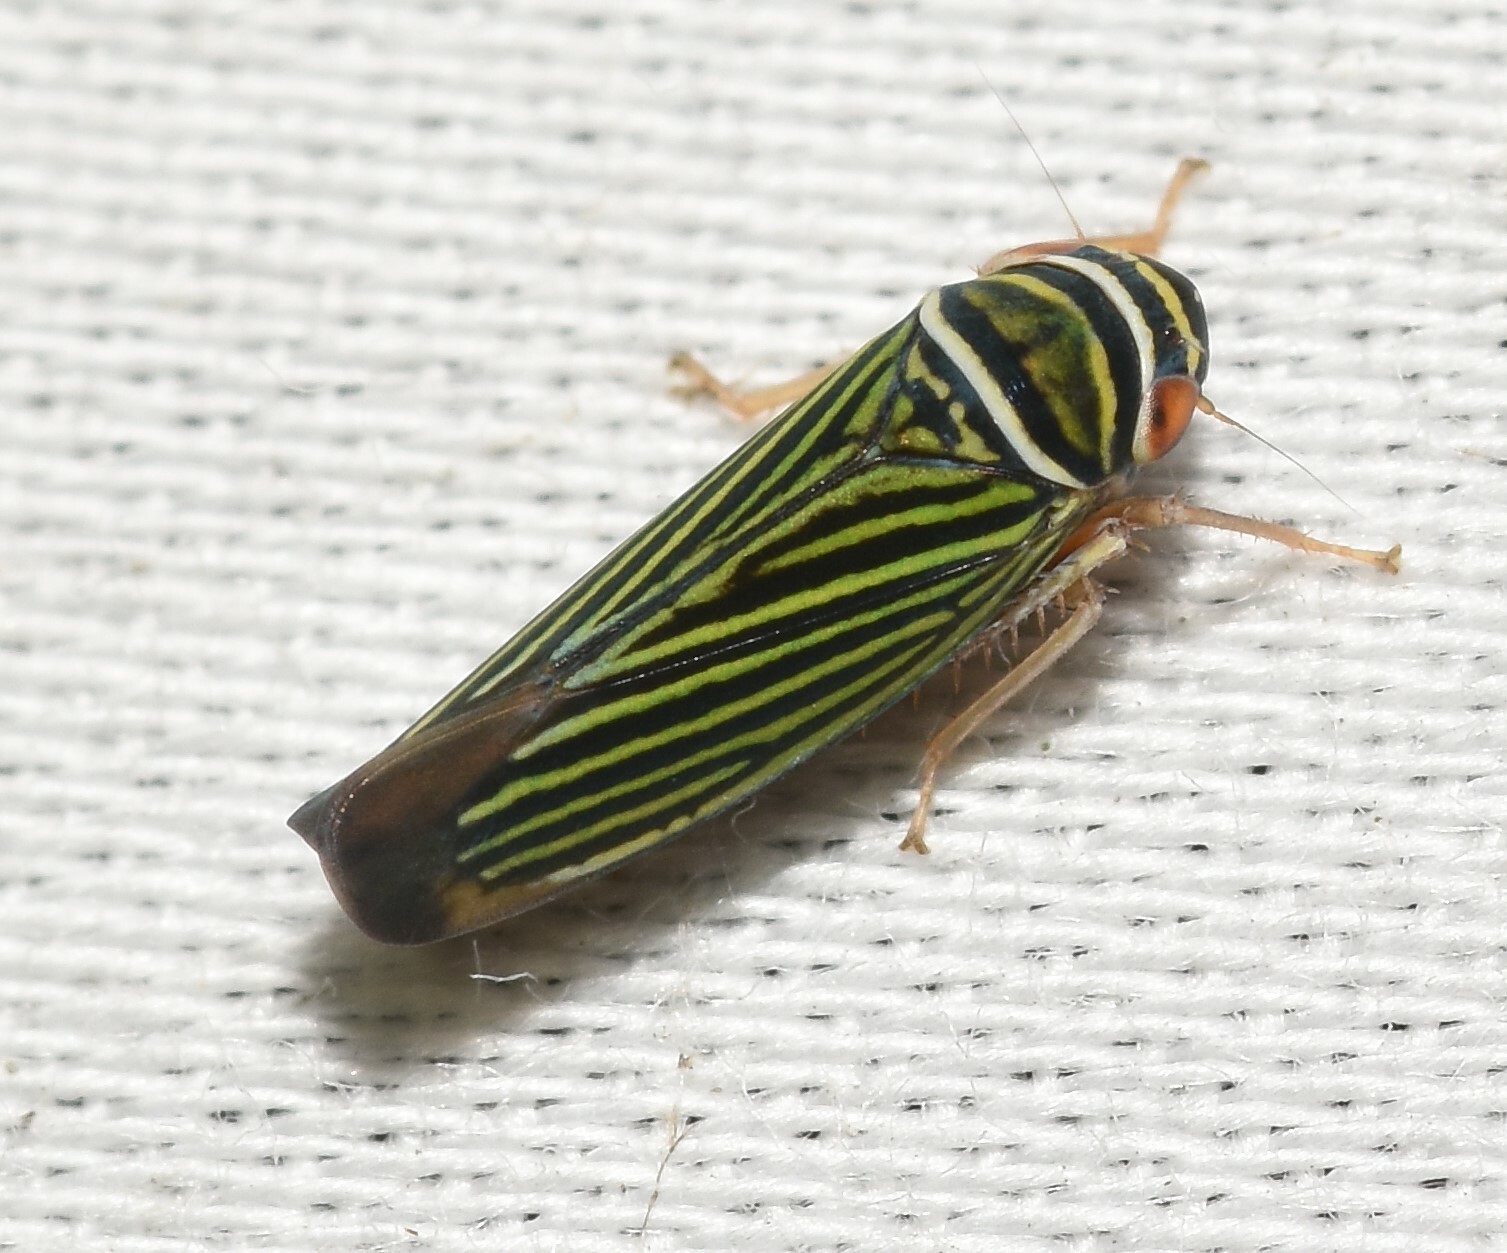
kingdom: Animalia
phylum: Arthropoda
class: Insecta
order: Hemiptera
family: Cicadellidae
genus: Tylozygus
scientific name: Tylozygus bifidus
